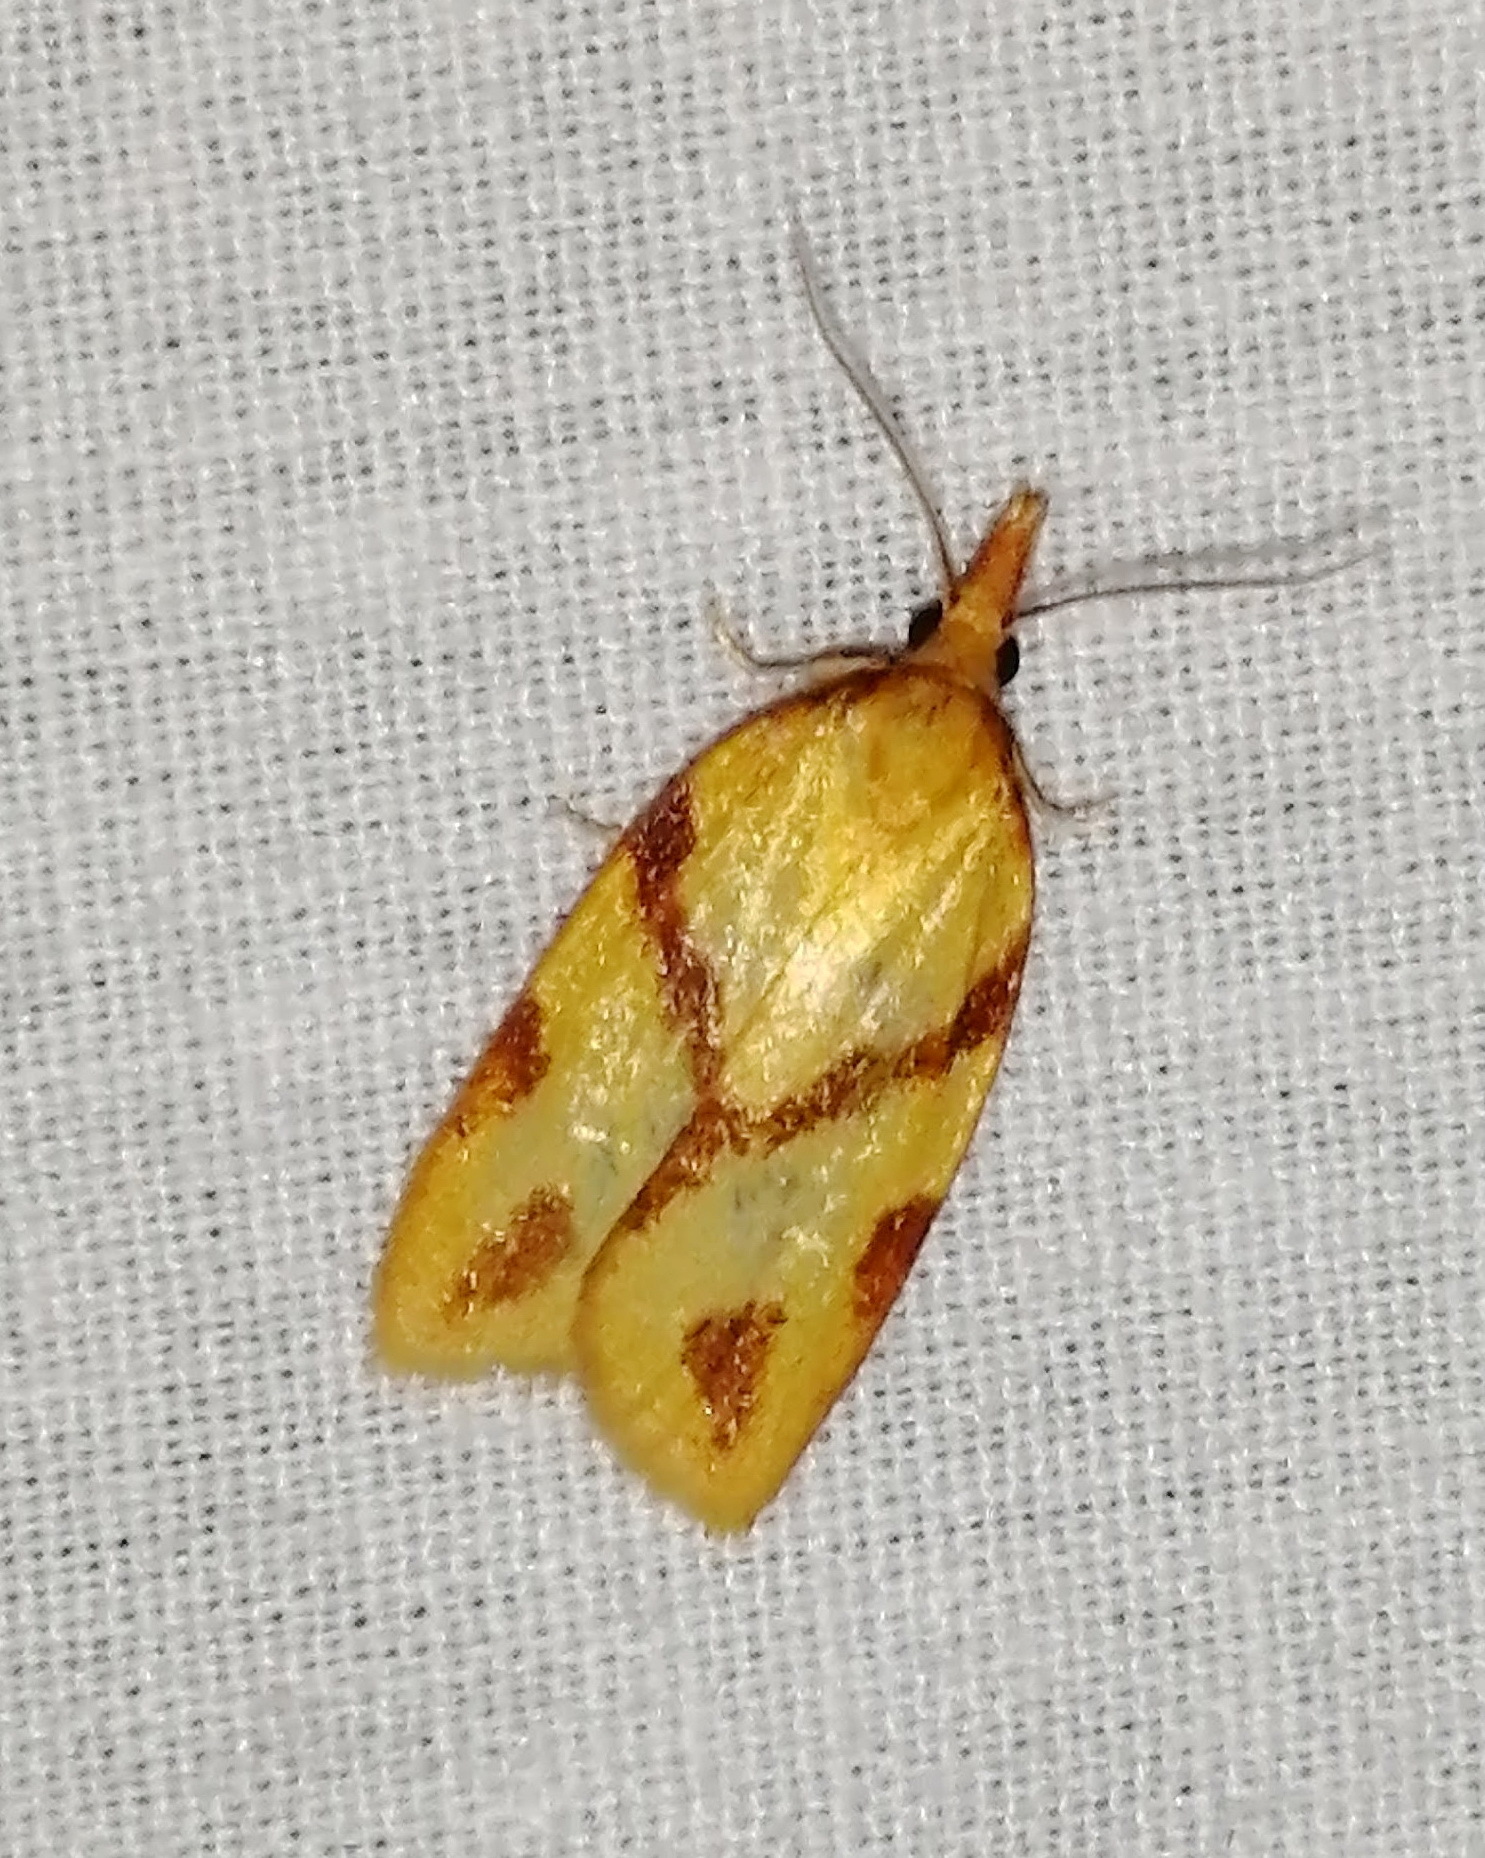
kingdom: Animalia
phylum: Arthropoda
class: Insecta
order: Lepidoptera
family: Tortricidae
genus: Sparganothis
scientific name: Sparganothis unifasciana
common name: One-lined sparganothis moth
